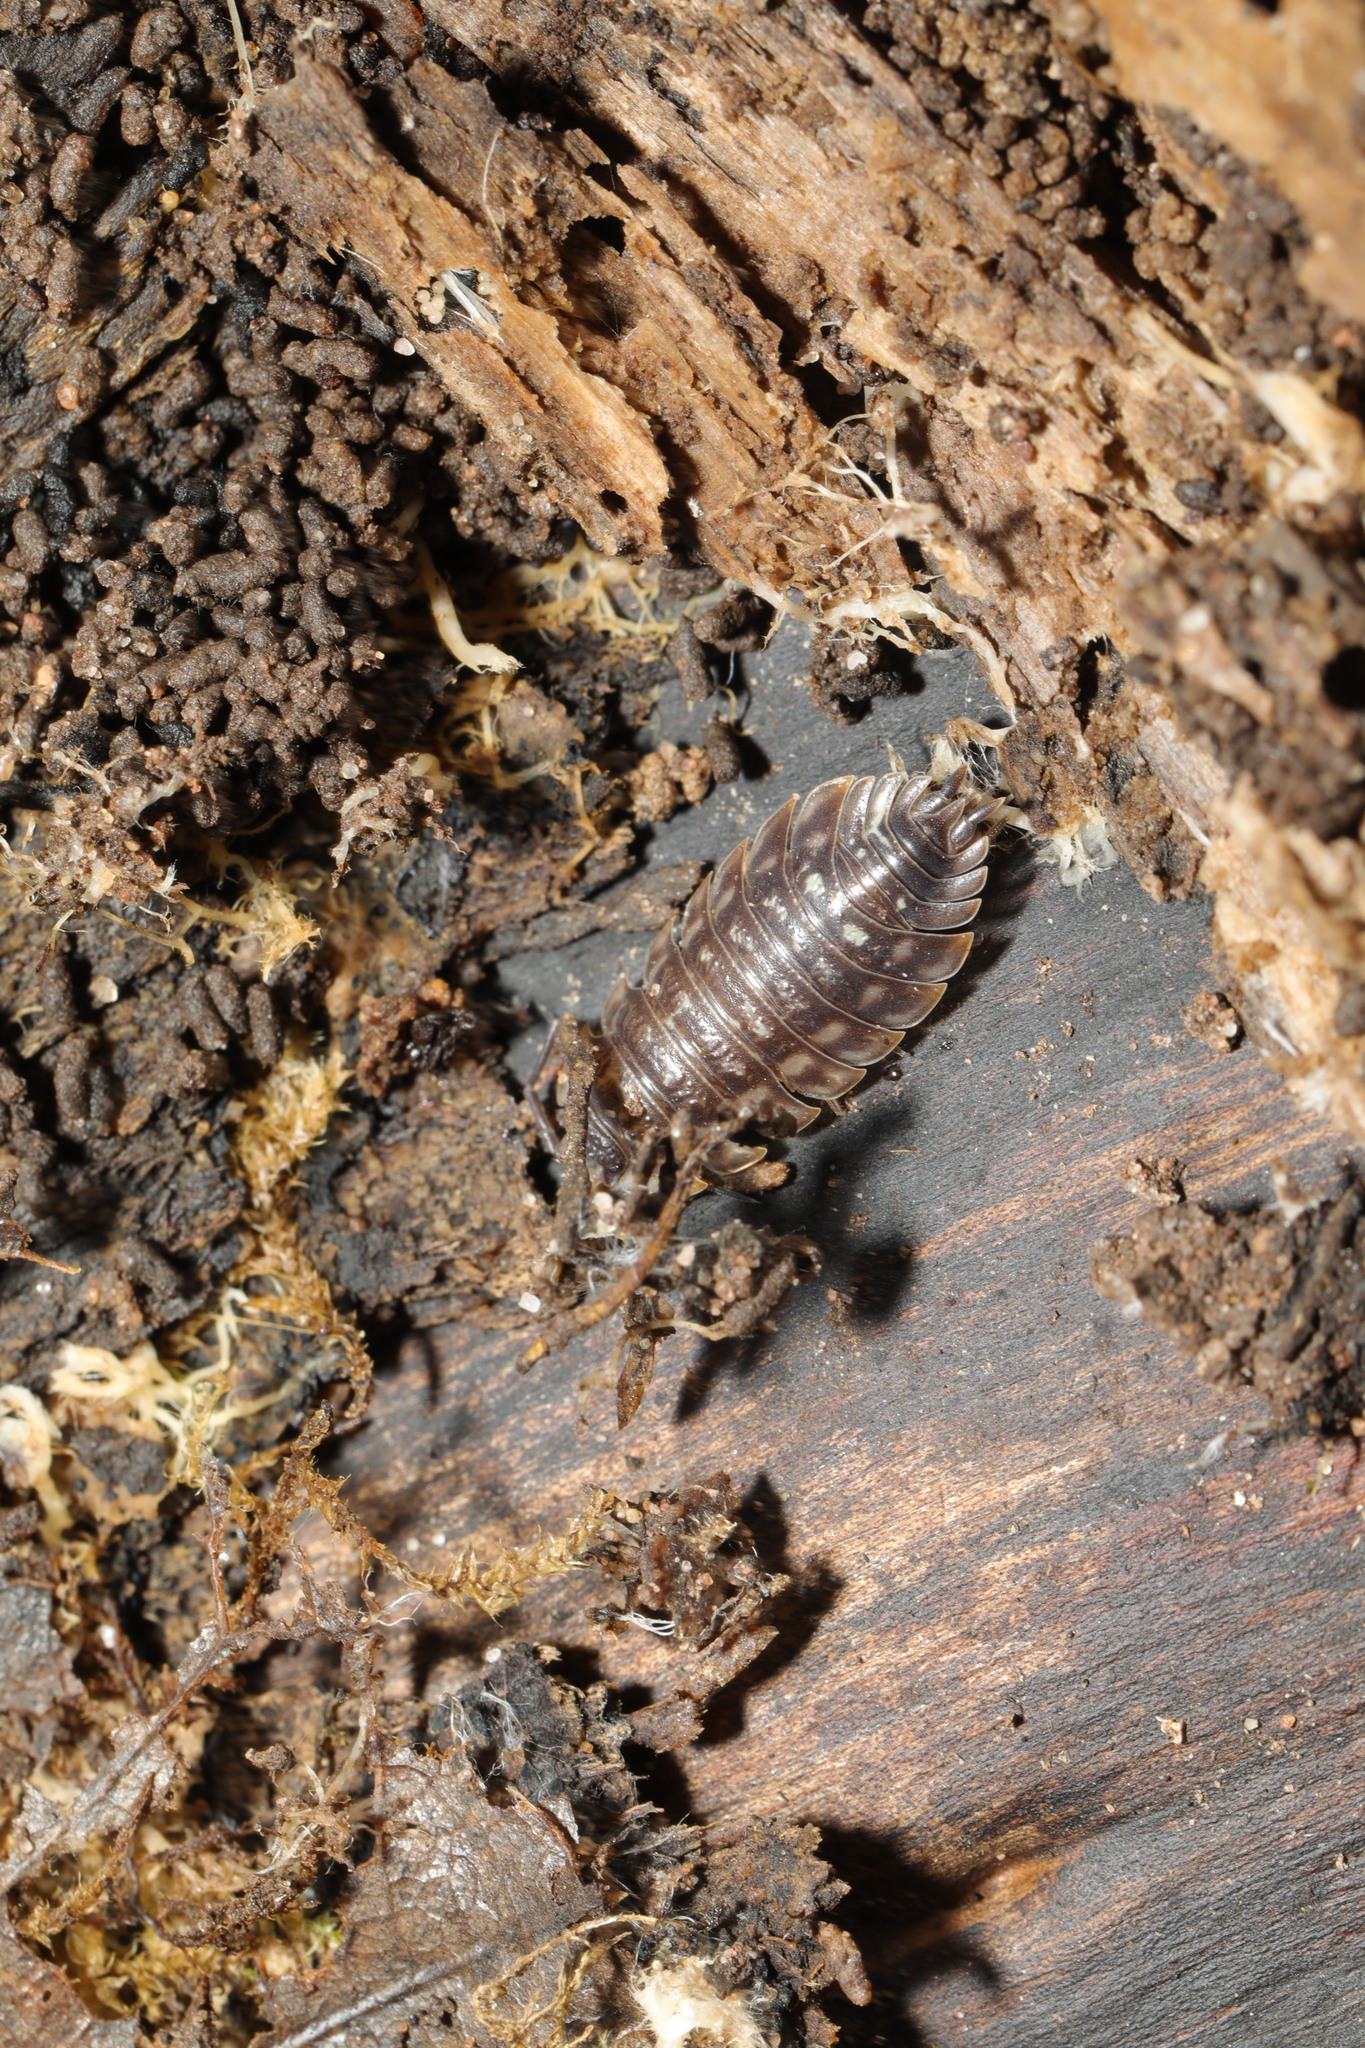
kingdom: Animalia
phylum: Arthropoda
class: Malacostraca
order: Isopoda
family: Oniscidae
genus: Oniscus
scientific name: Oniscus asellus
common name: Common shiny woodlouse
